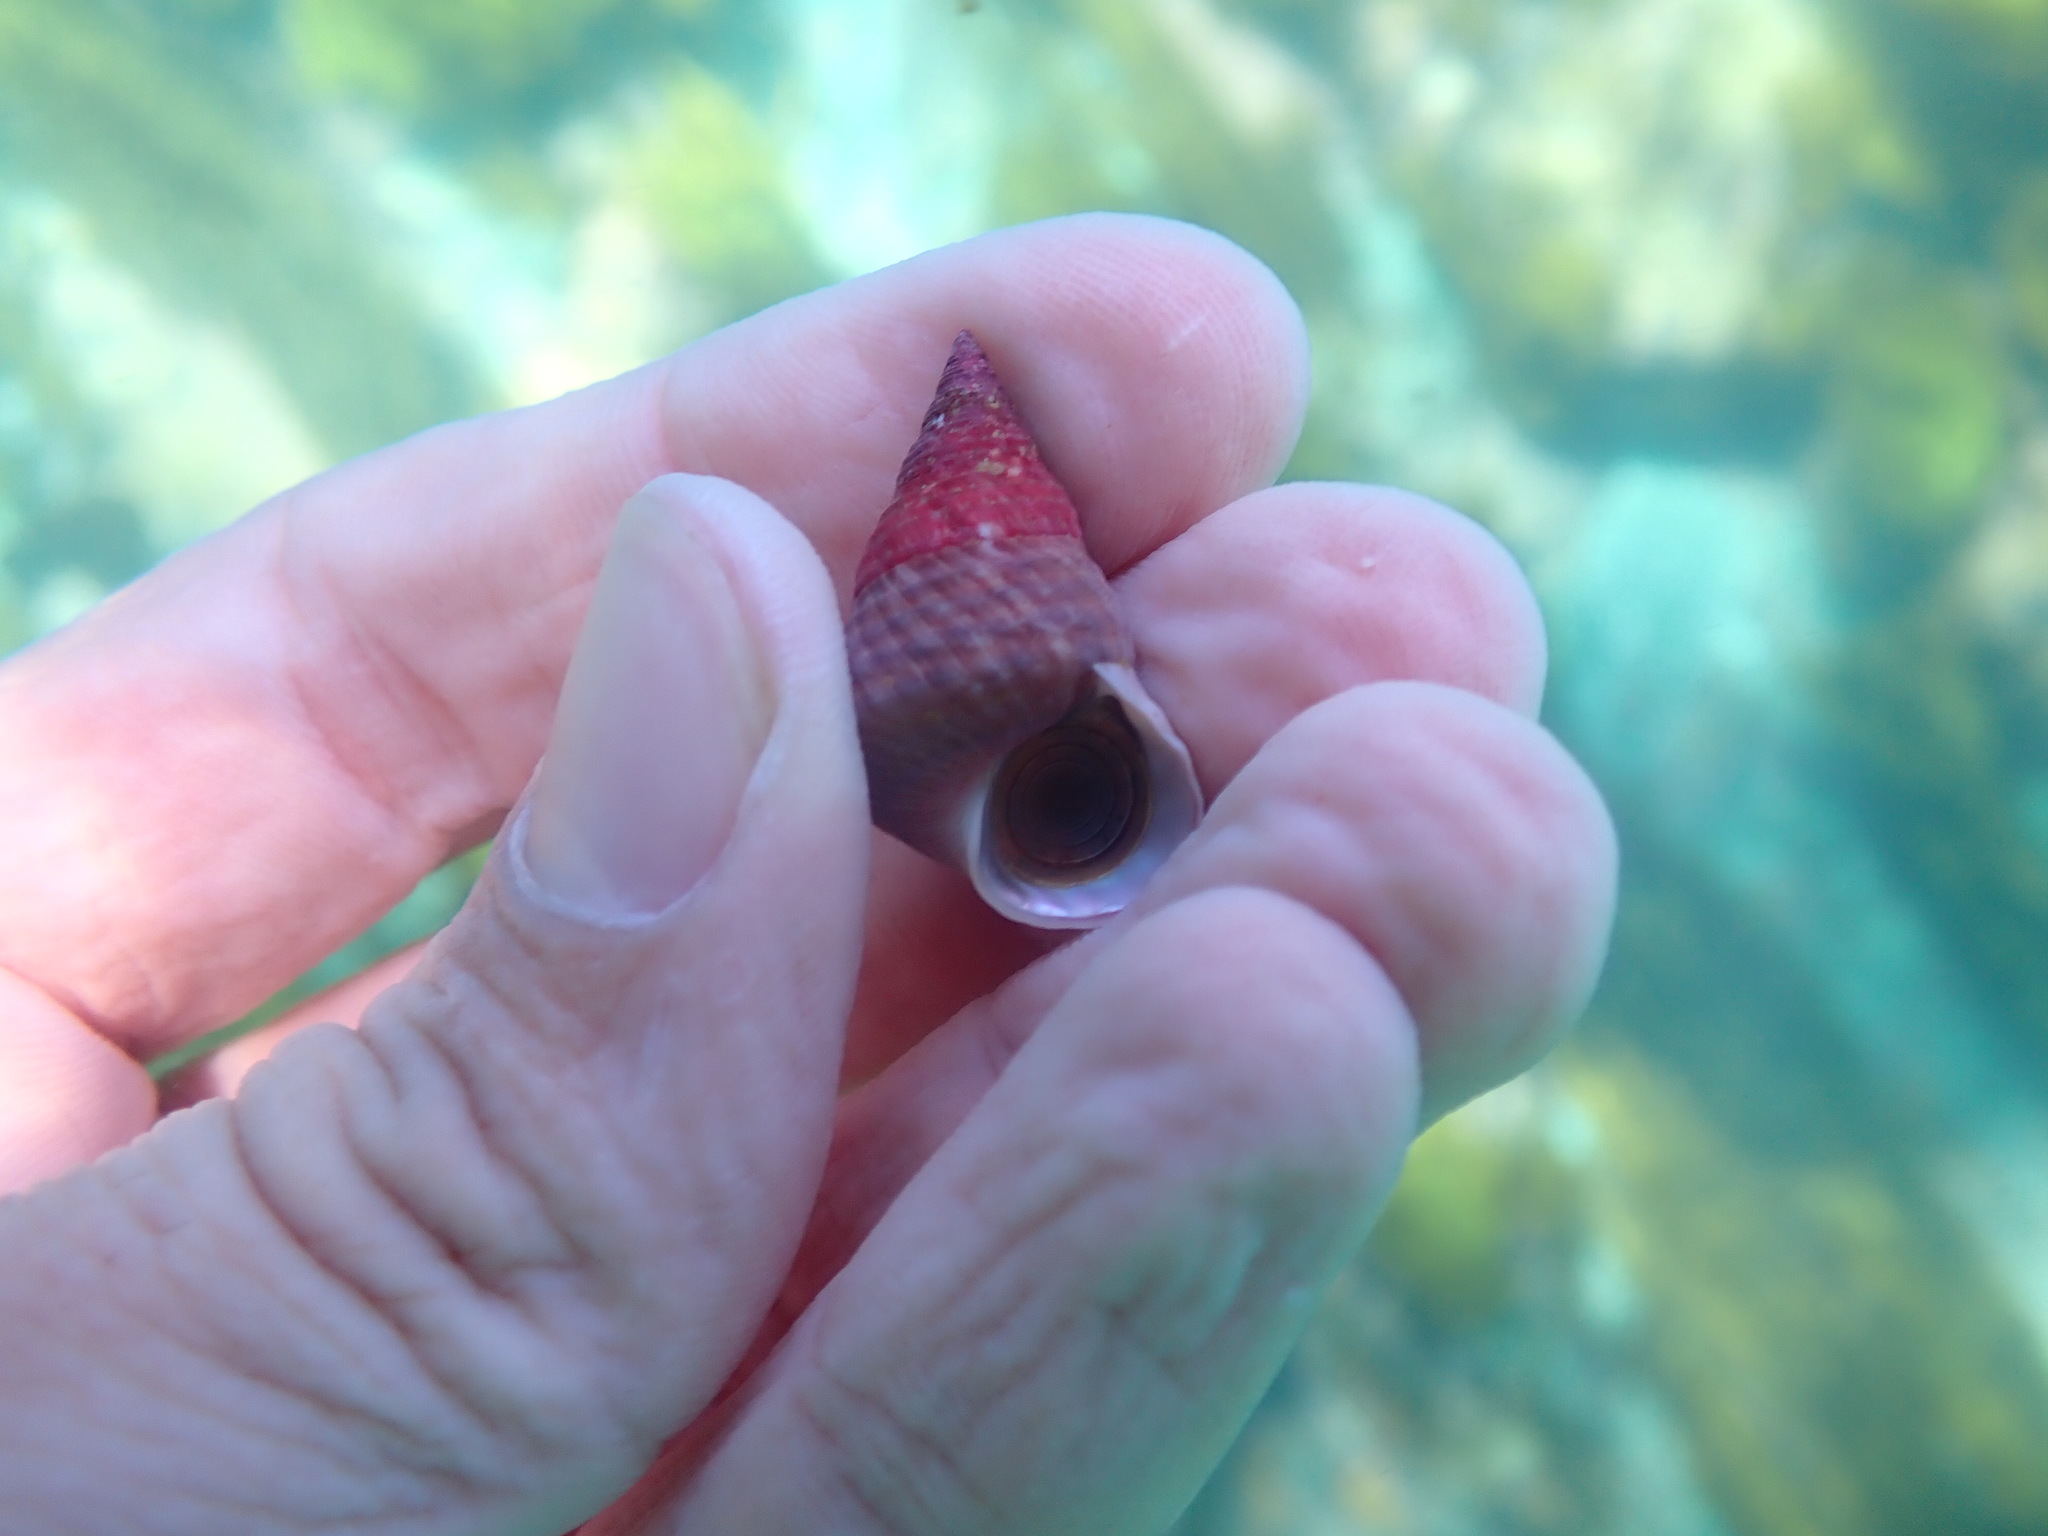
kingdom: Animalia
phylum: Mollusca
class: Gastropoda
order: Trochida
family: Trochidae
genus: Micrelenchus
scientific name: Micrelenchus purpureus
